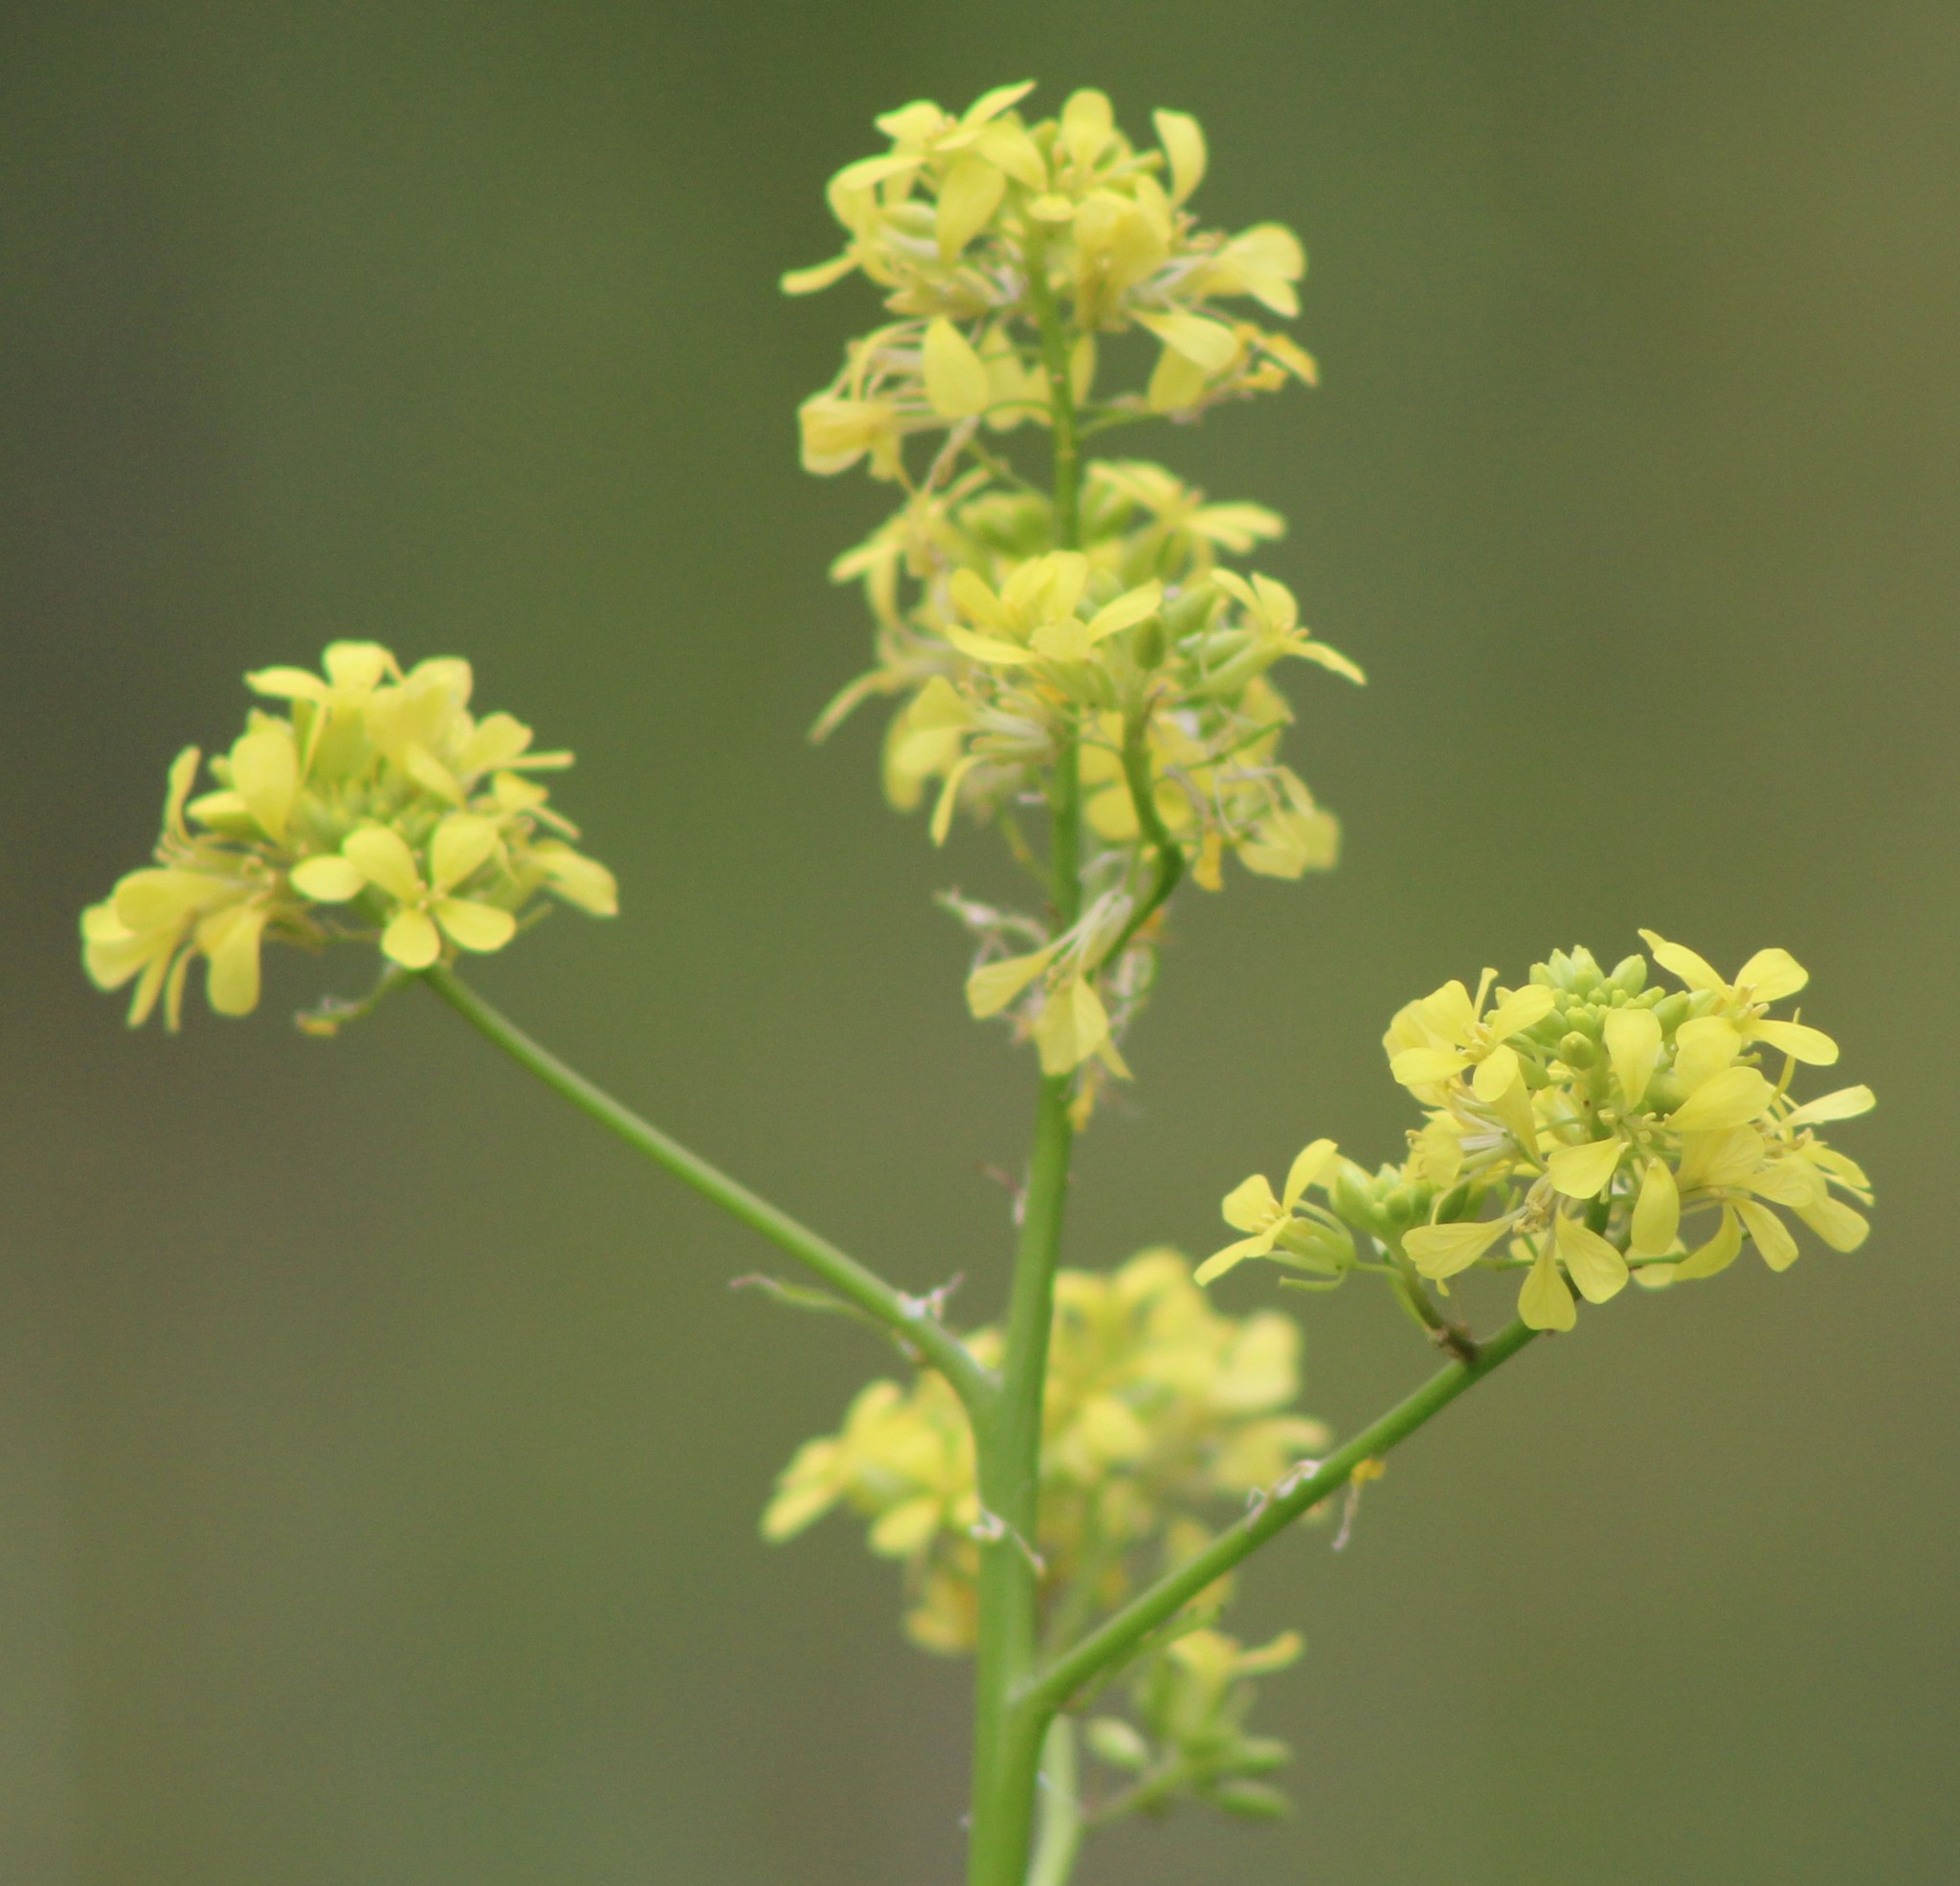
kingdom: Plantae
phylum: Tracheophyta
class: Magnoliopsida
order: Brassicales
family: Brassicaceae
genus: Rapistrum
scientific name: Rapistrum rugosum
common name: Annual bastardcabbage
